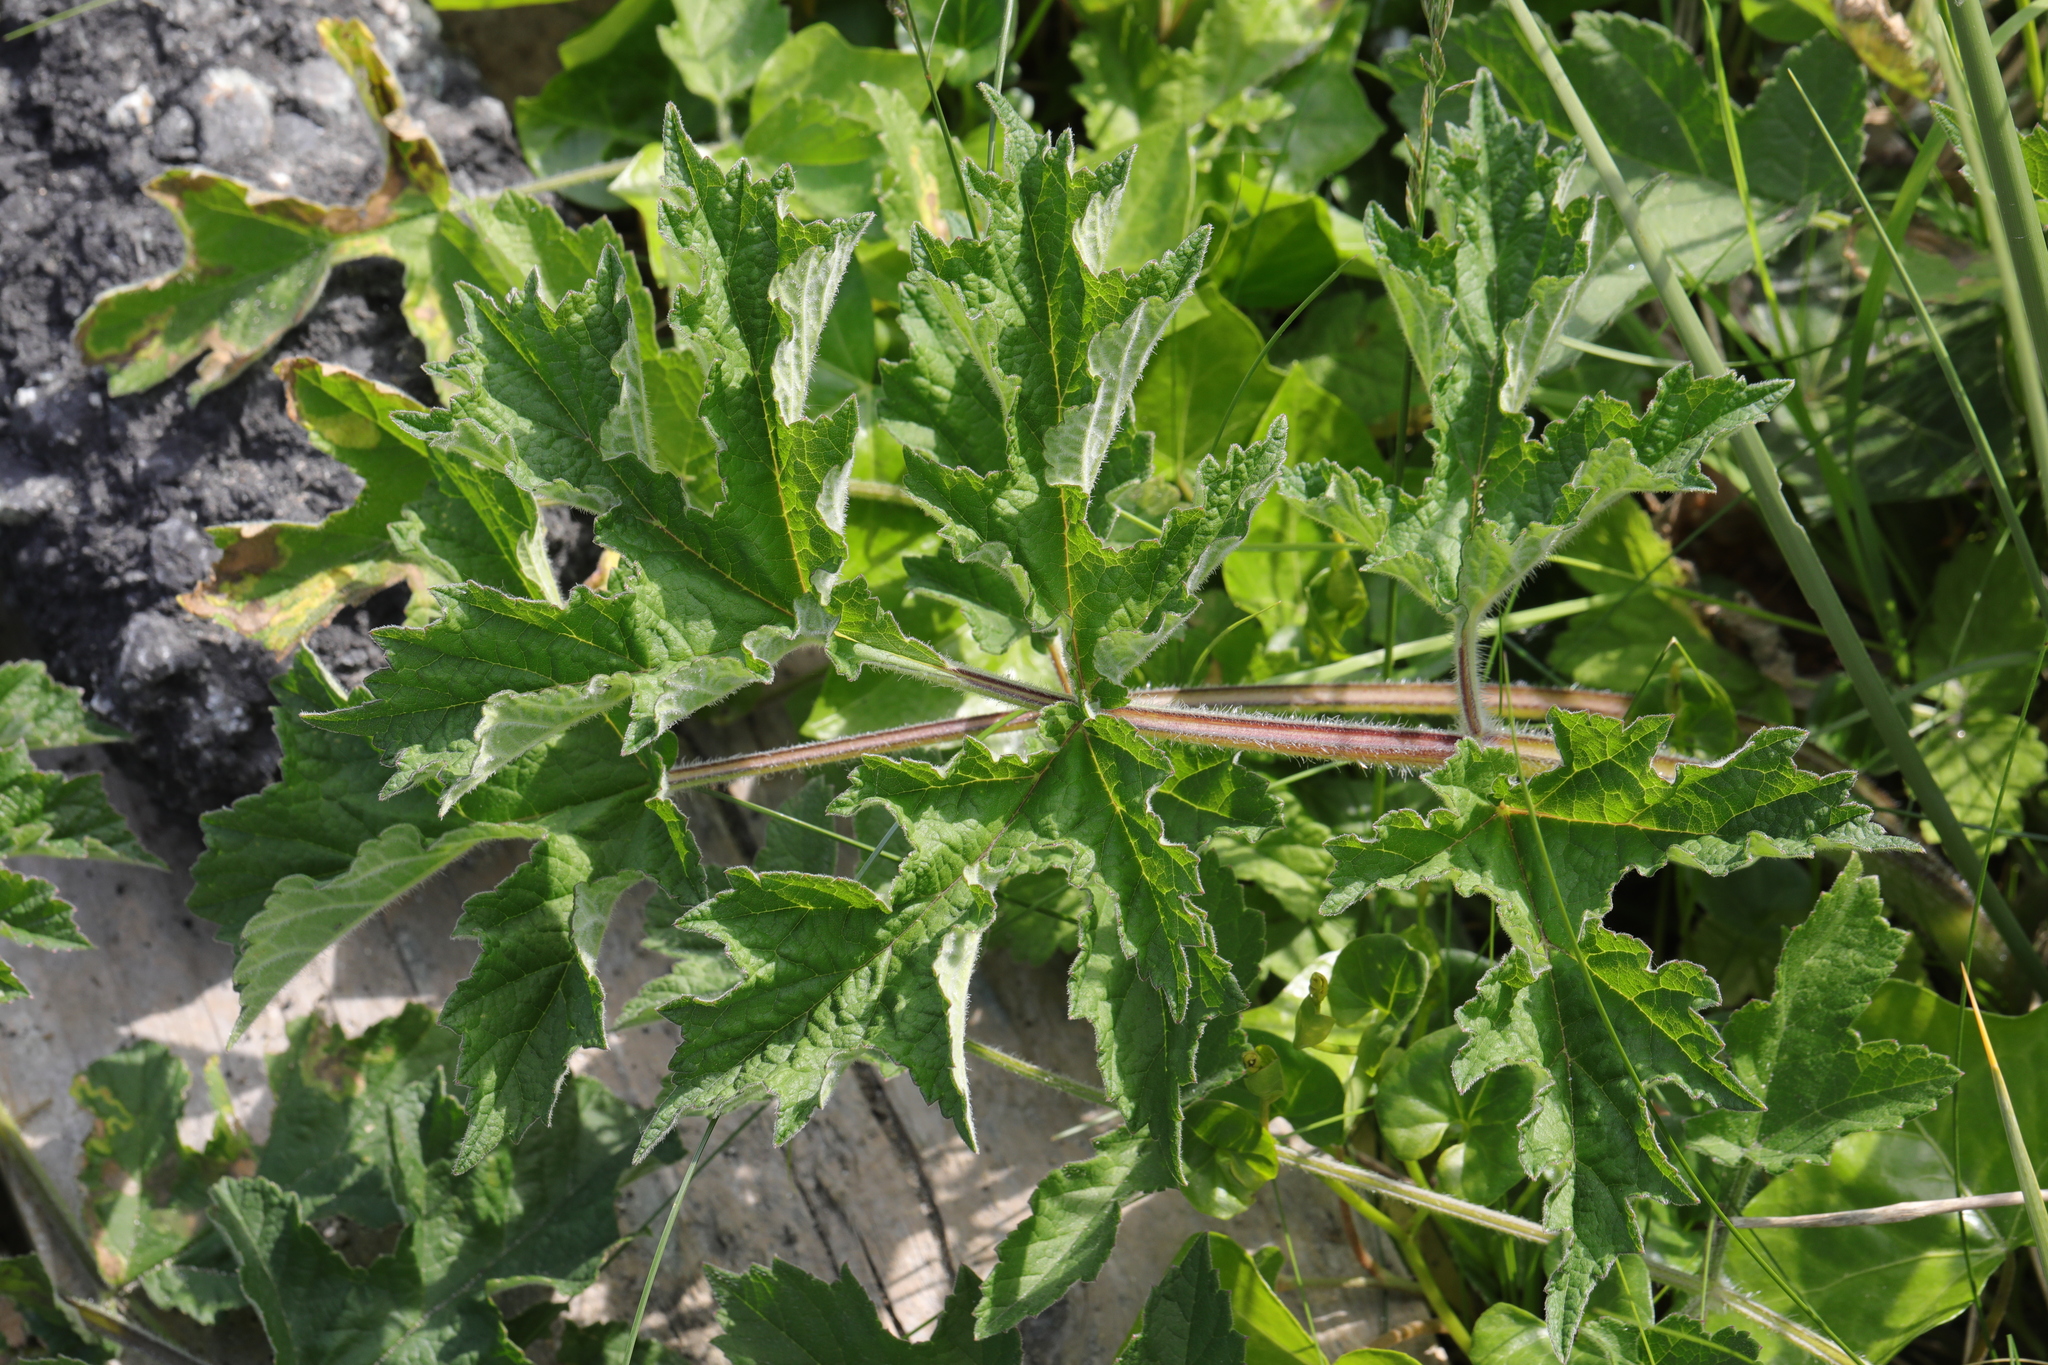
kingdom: Plantae
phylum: Tracheophyta
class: Magnoliopsida
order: Apiales
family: Apiaceae
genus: Heracleum
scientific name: Heracleum sphondylium
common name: Hogweed
